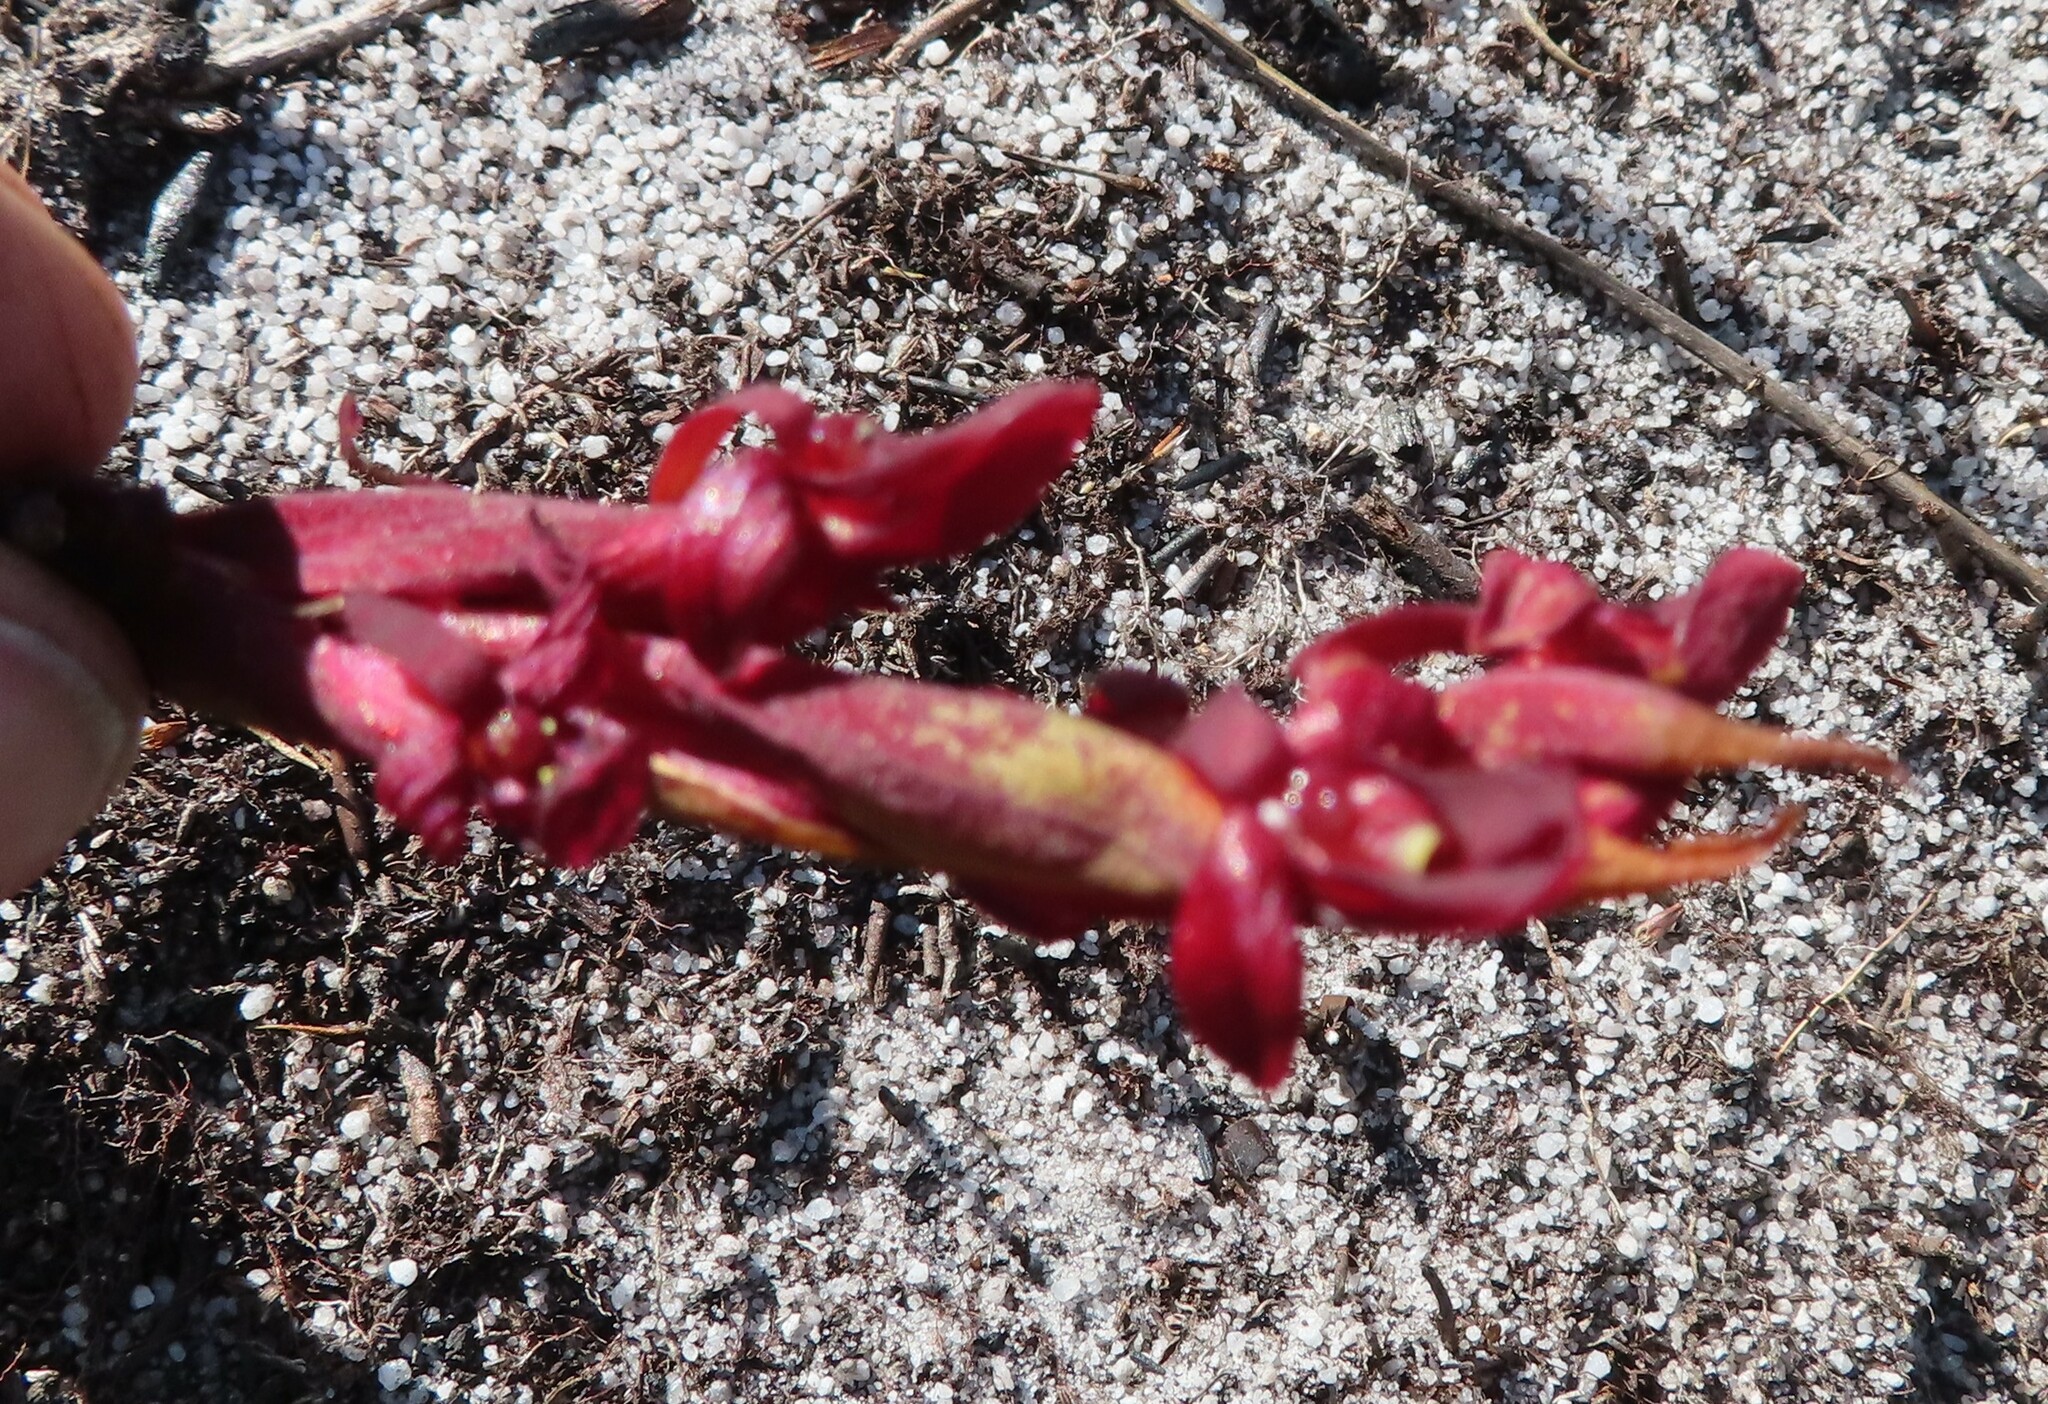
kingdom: Plantae
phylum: Tracheophyta
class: Liliopsida
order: Asparagales
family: Orchidaceae
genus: Disa
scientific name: Disa ophrydea
